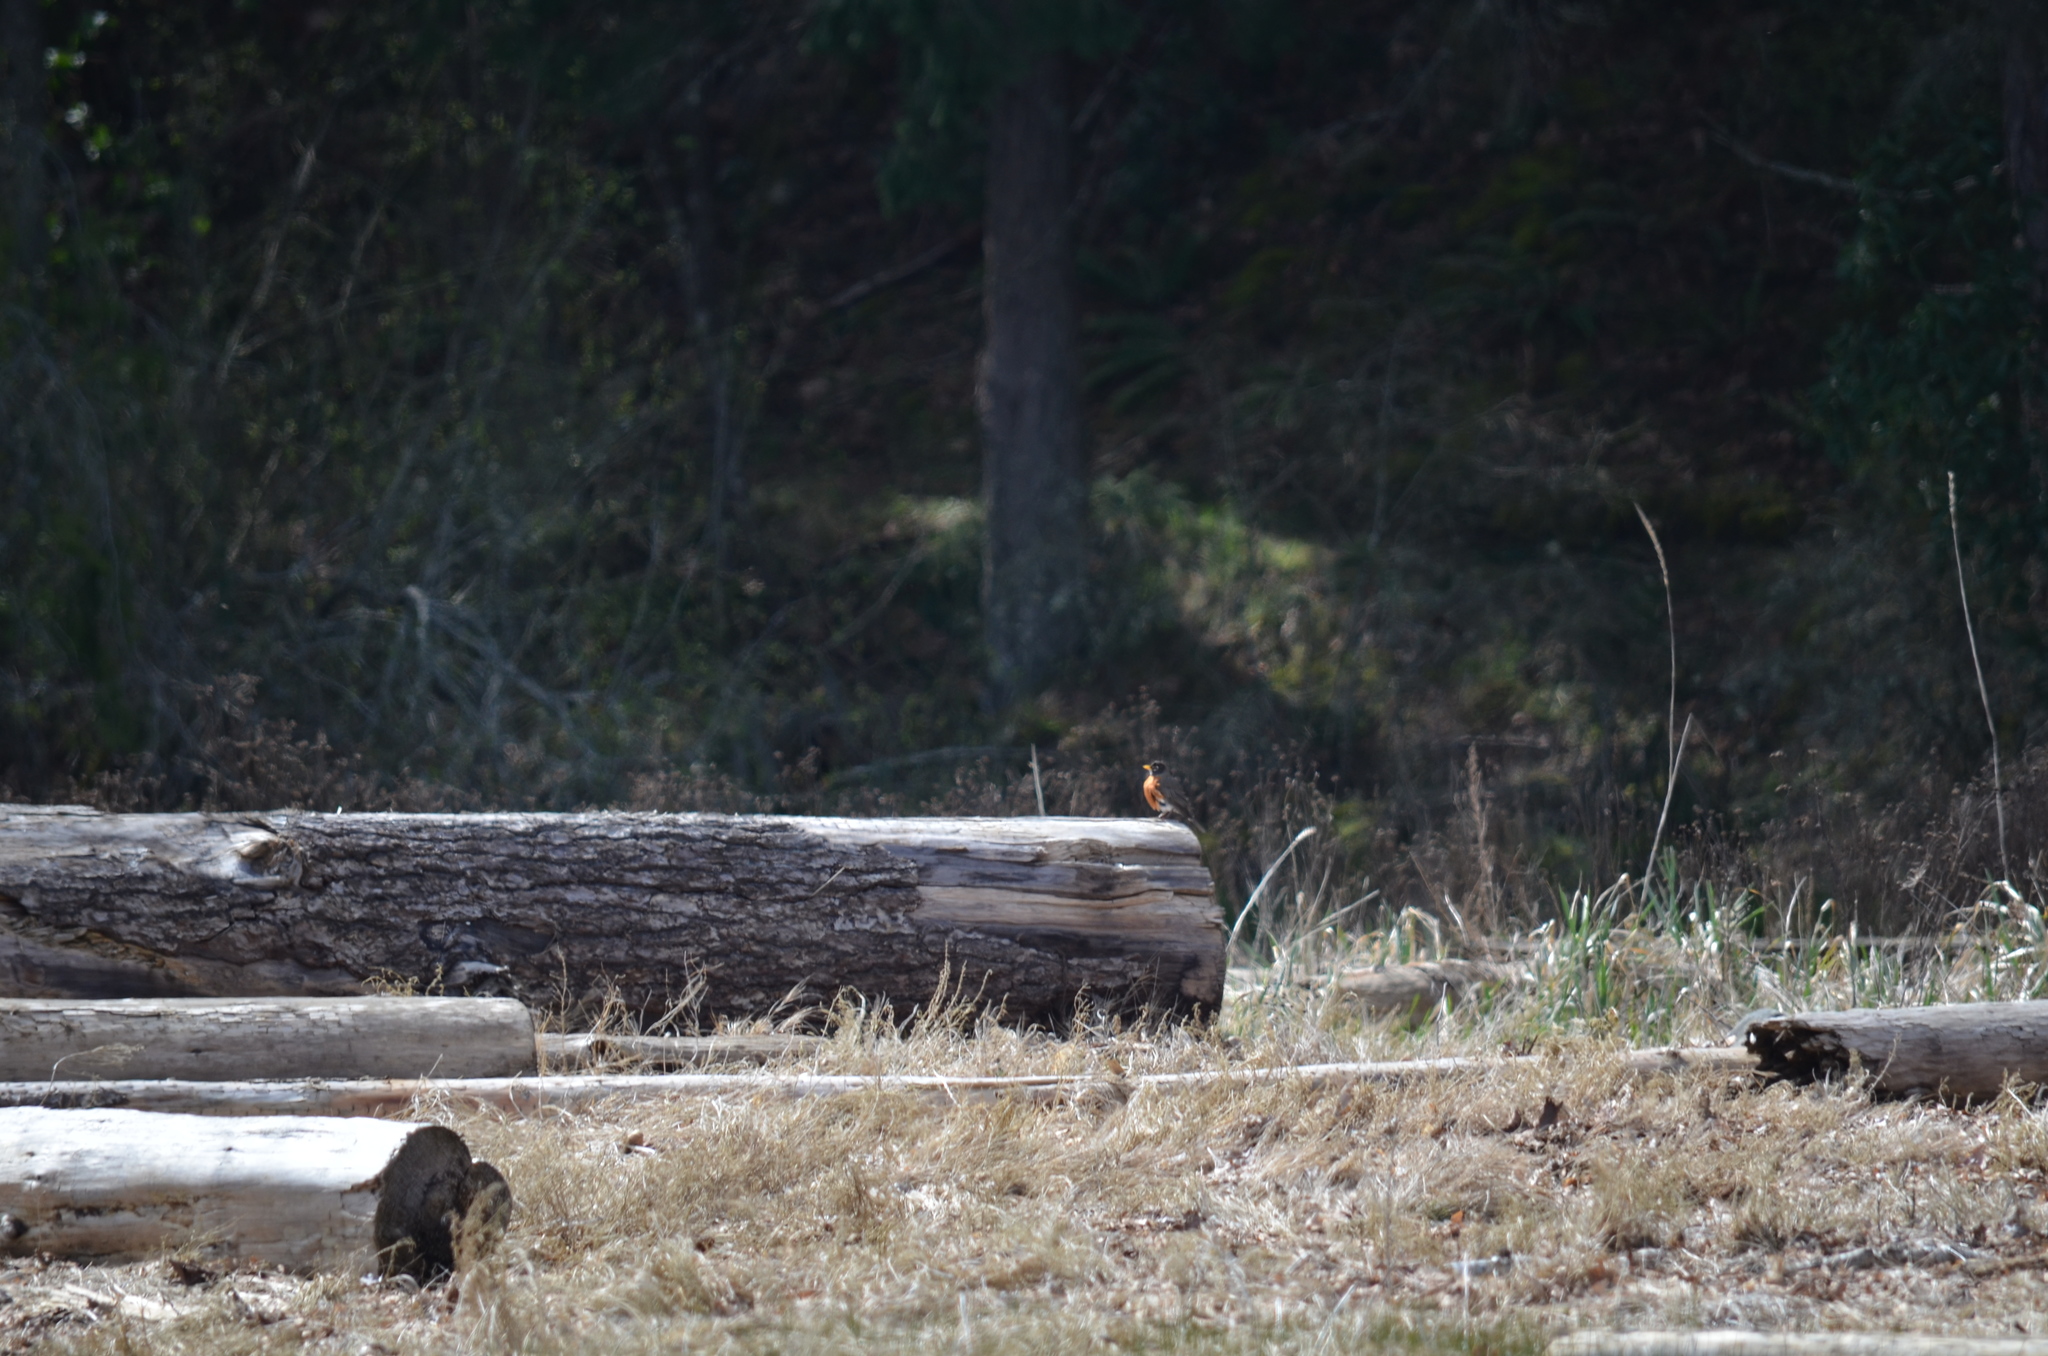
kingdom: Animalia
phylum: Chordata
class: Aves
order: Passeriformes
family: Turdidae
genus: Turdus
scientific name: Turdus migratorius
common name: American robin
